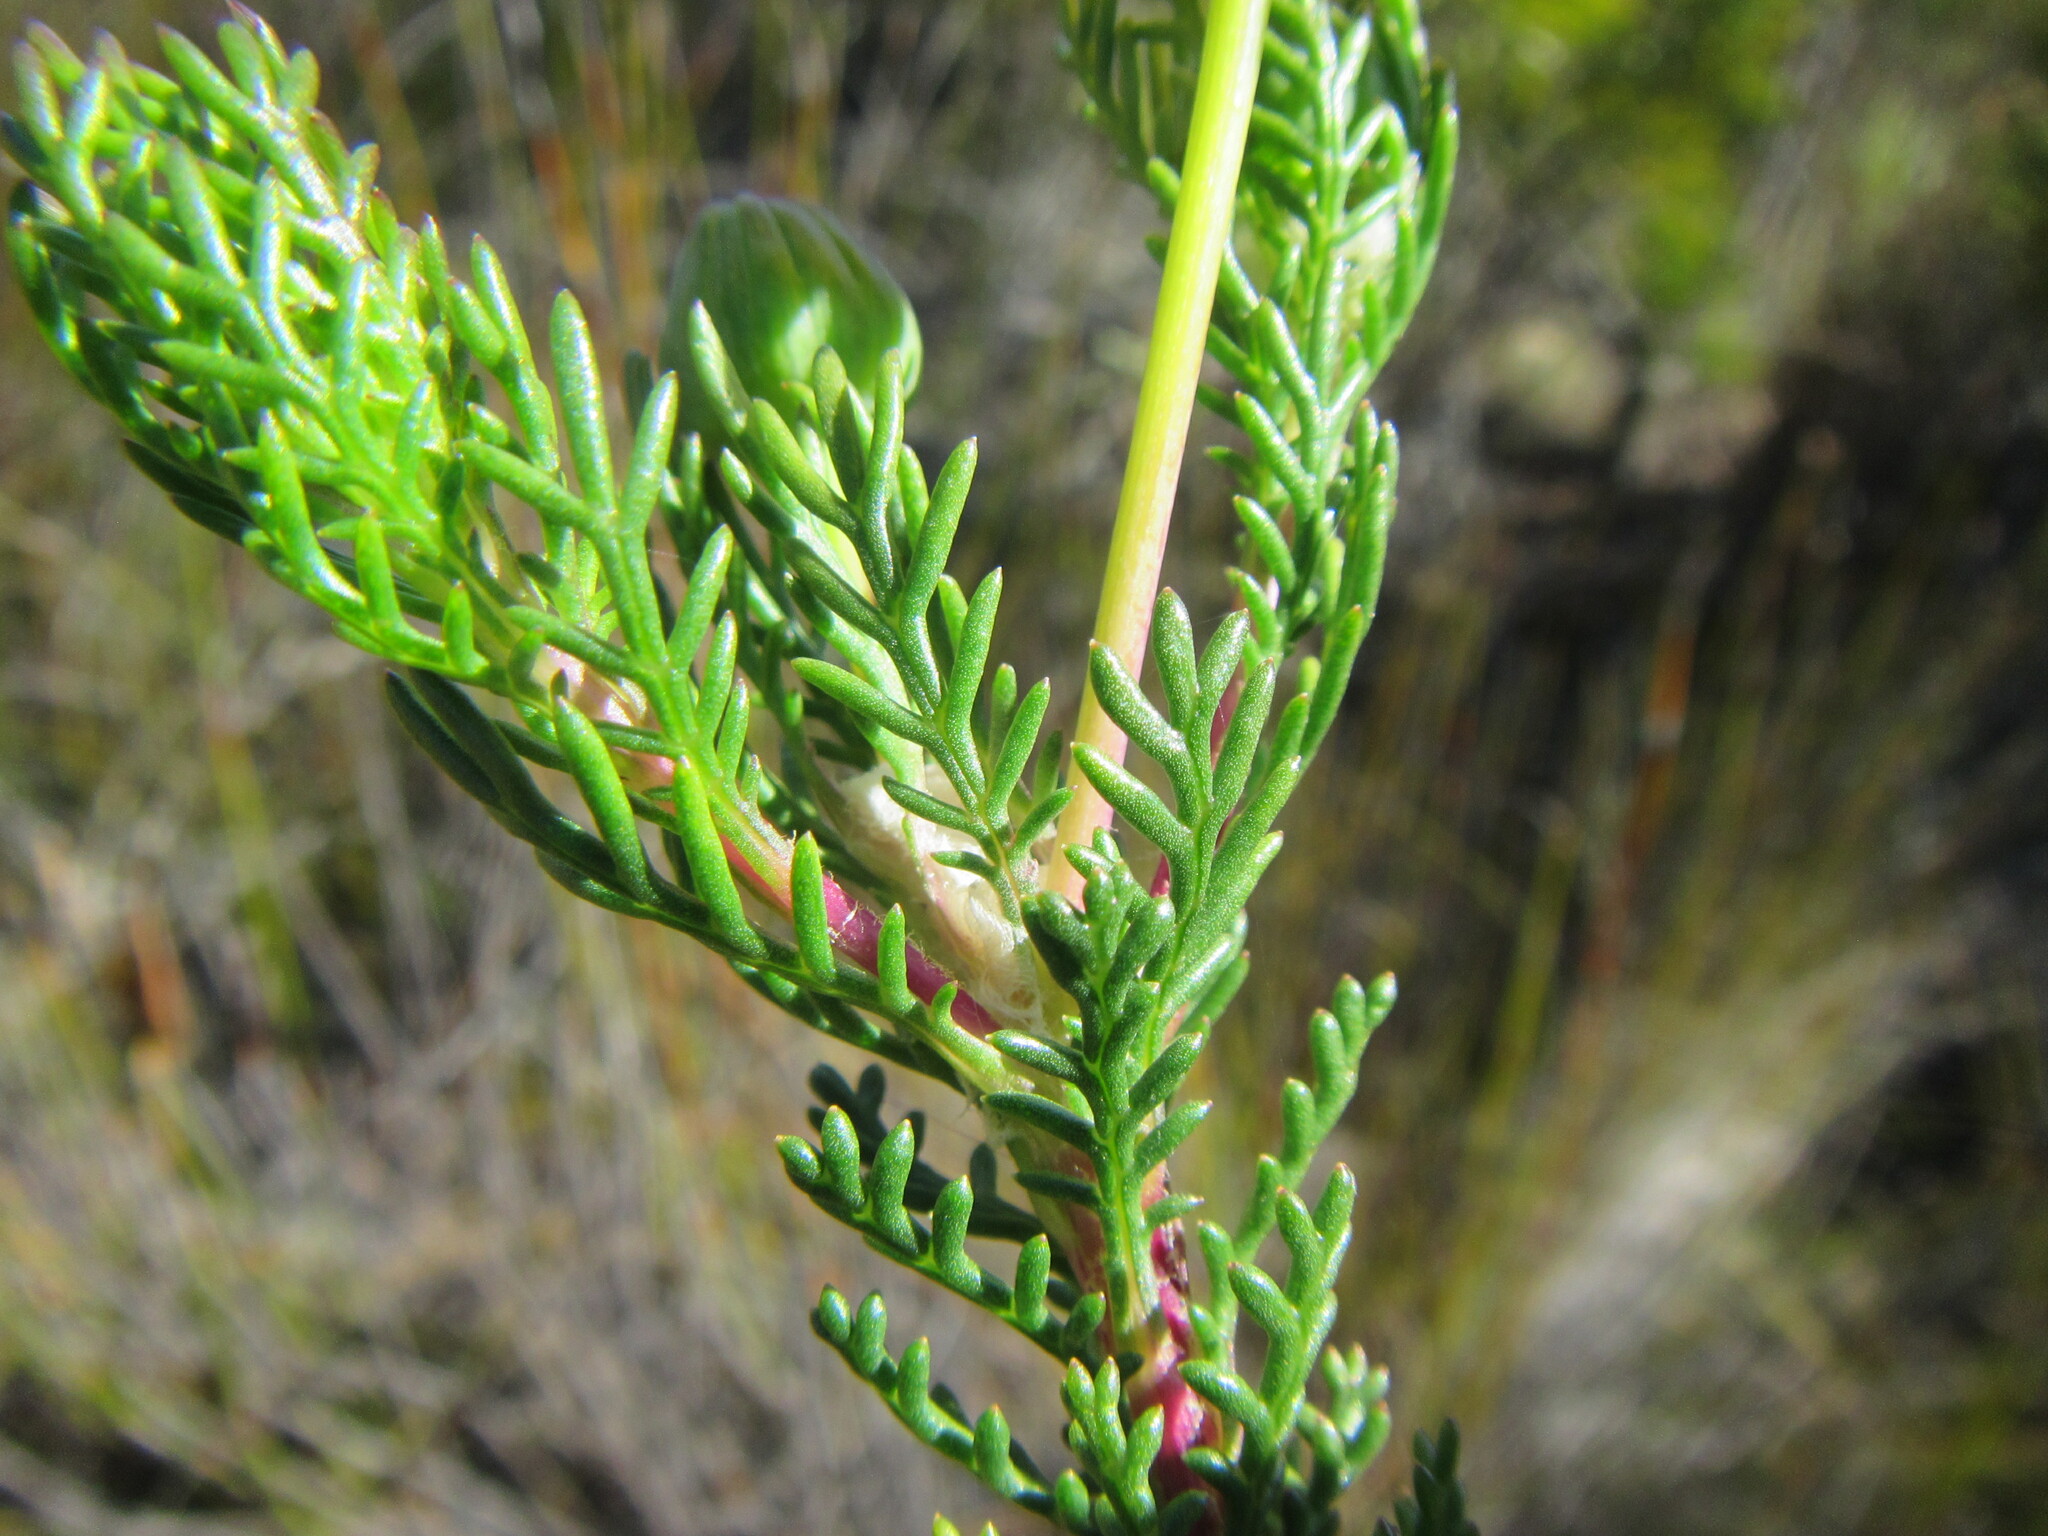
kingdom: Plantae
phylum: Tracheophyta
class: Magnoliopsida
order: Asterales
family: Asteraceae
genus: Euryops
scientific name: Euryops abrotanifolius
